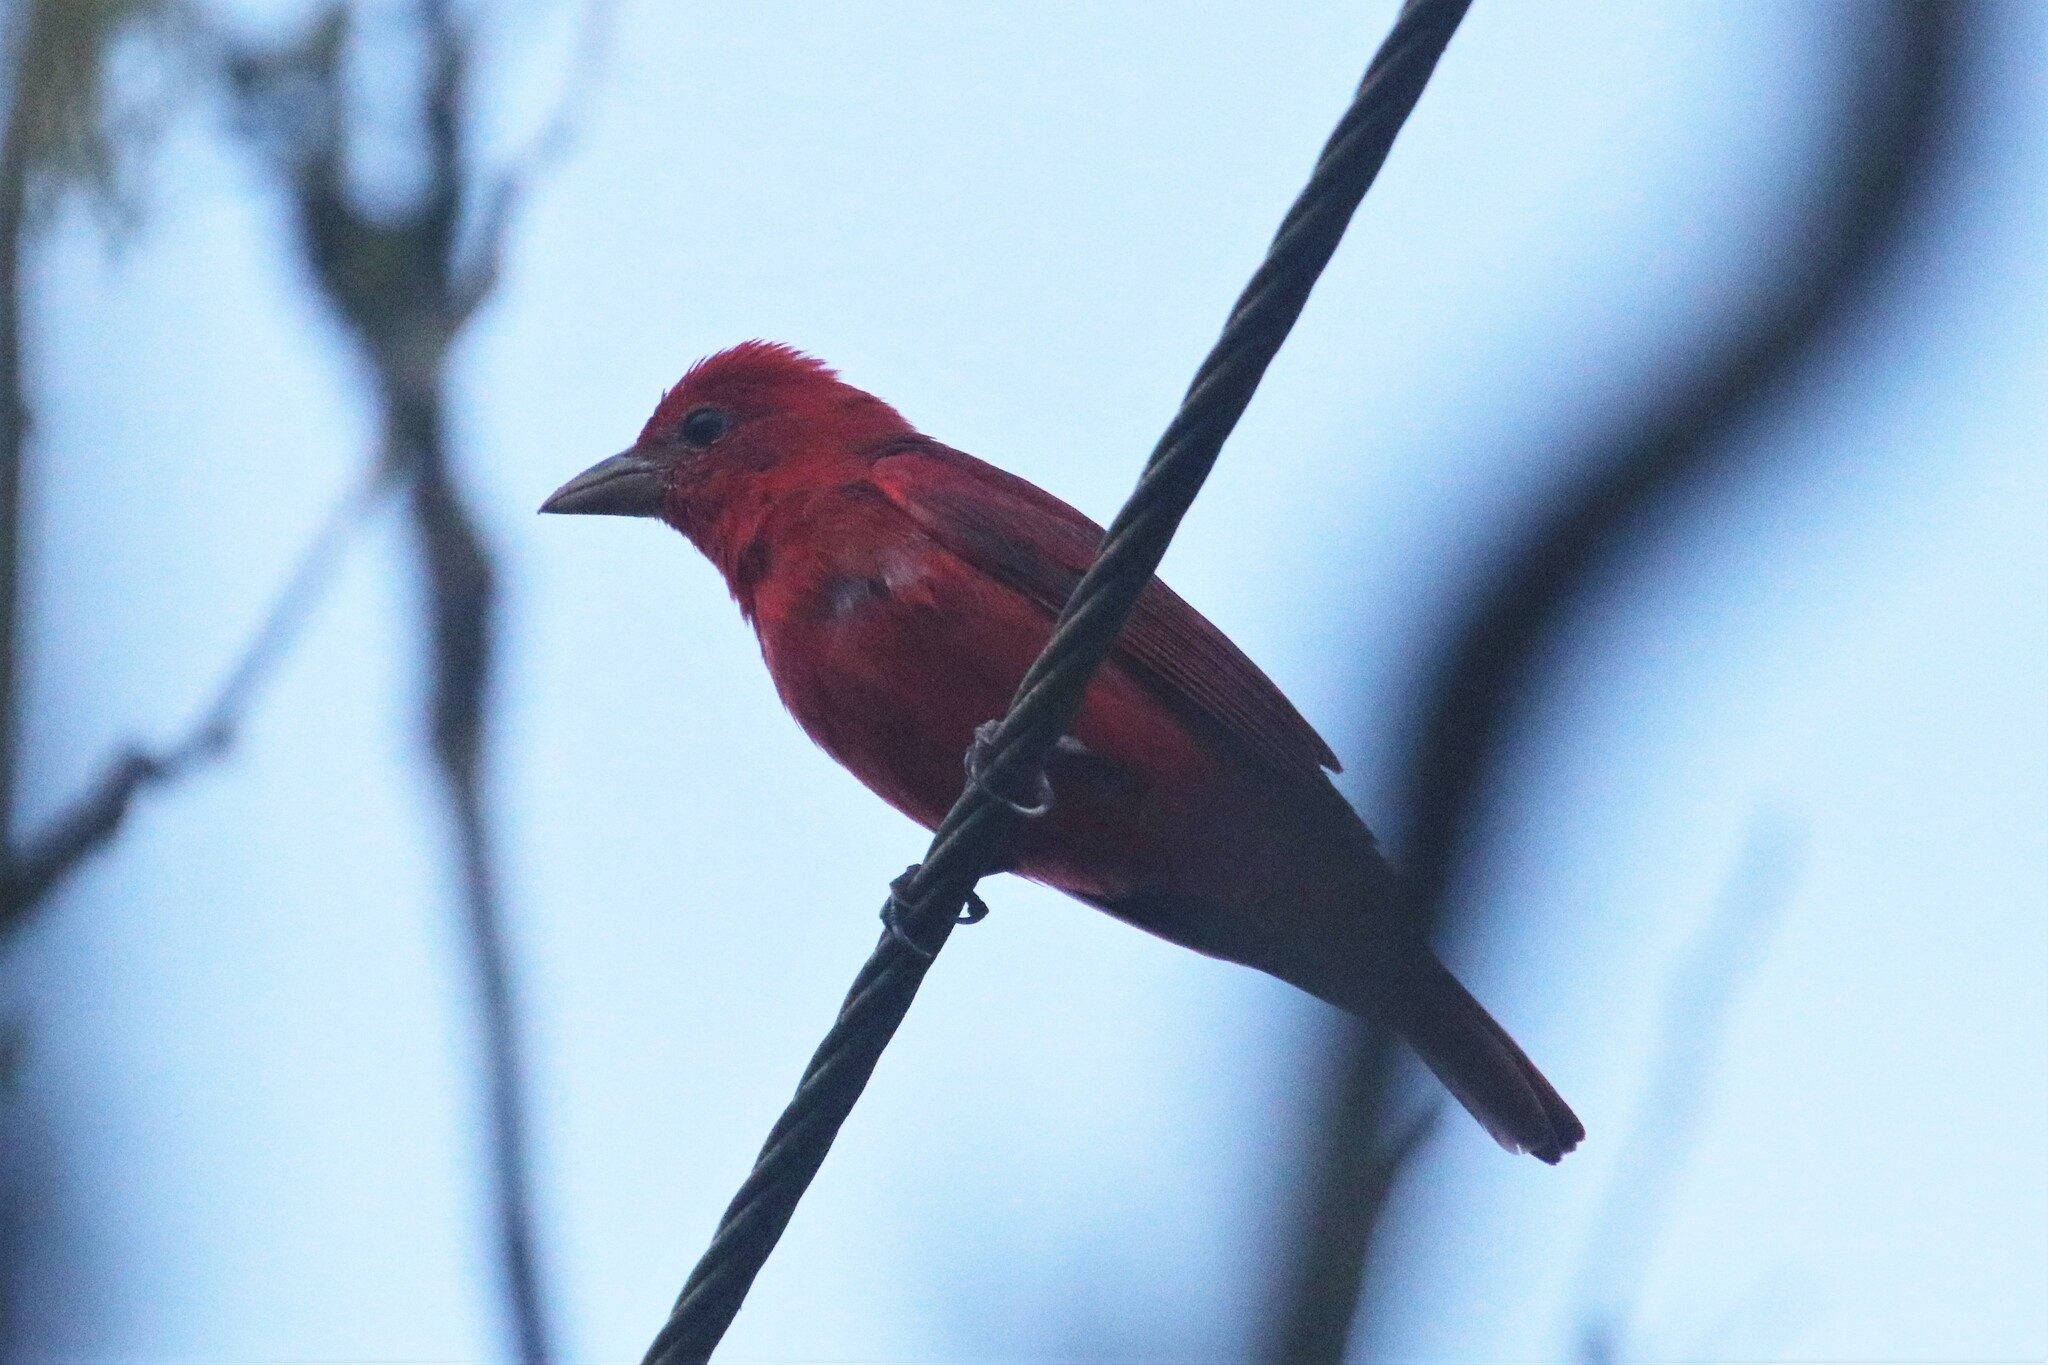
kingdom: Animalia
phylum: Chordata
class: Aves
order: Passeriformes
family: Cardinalidae
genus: Piranga
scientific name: Piranga rubra
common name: Summer tanager
